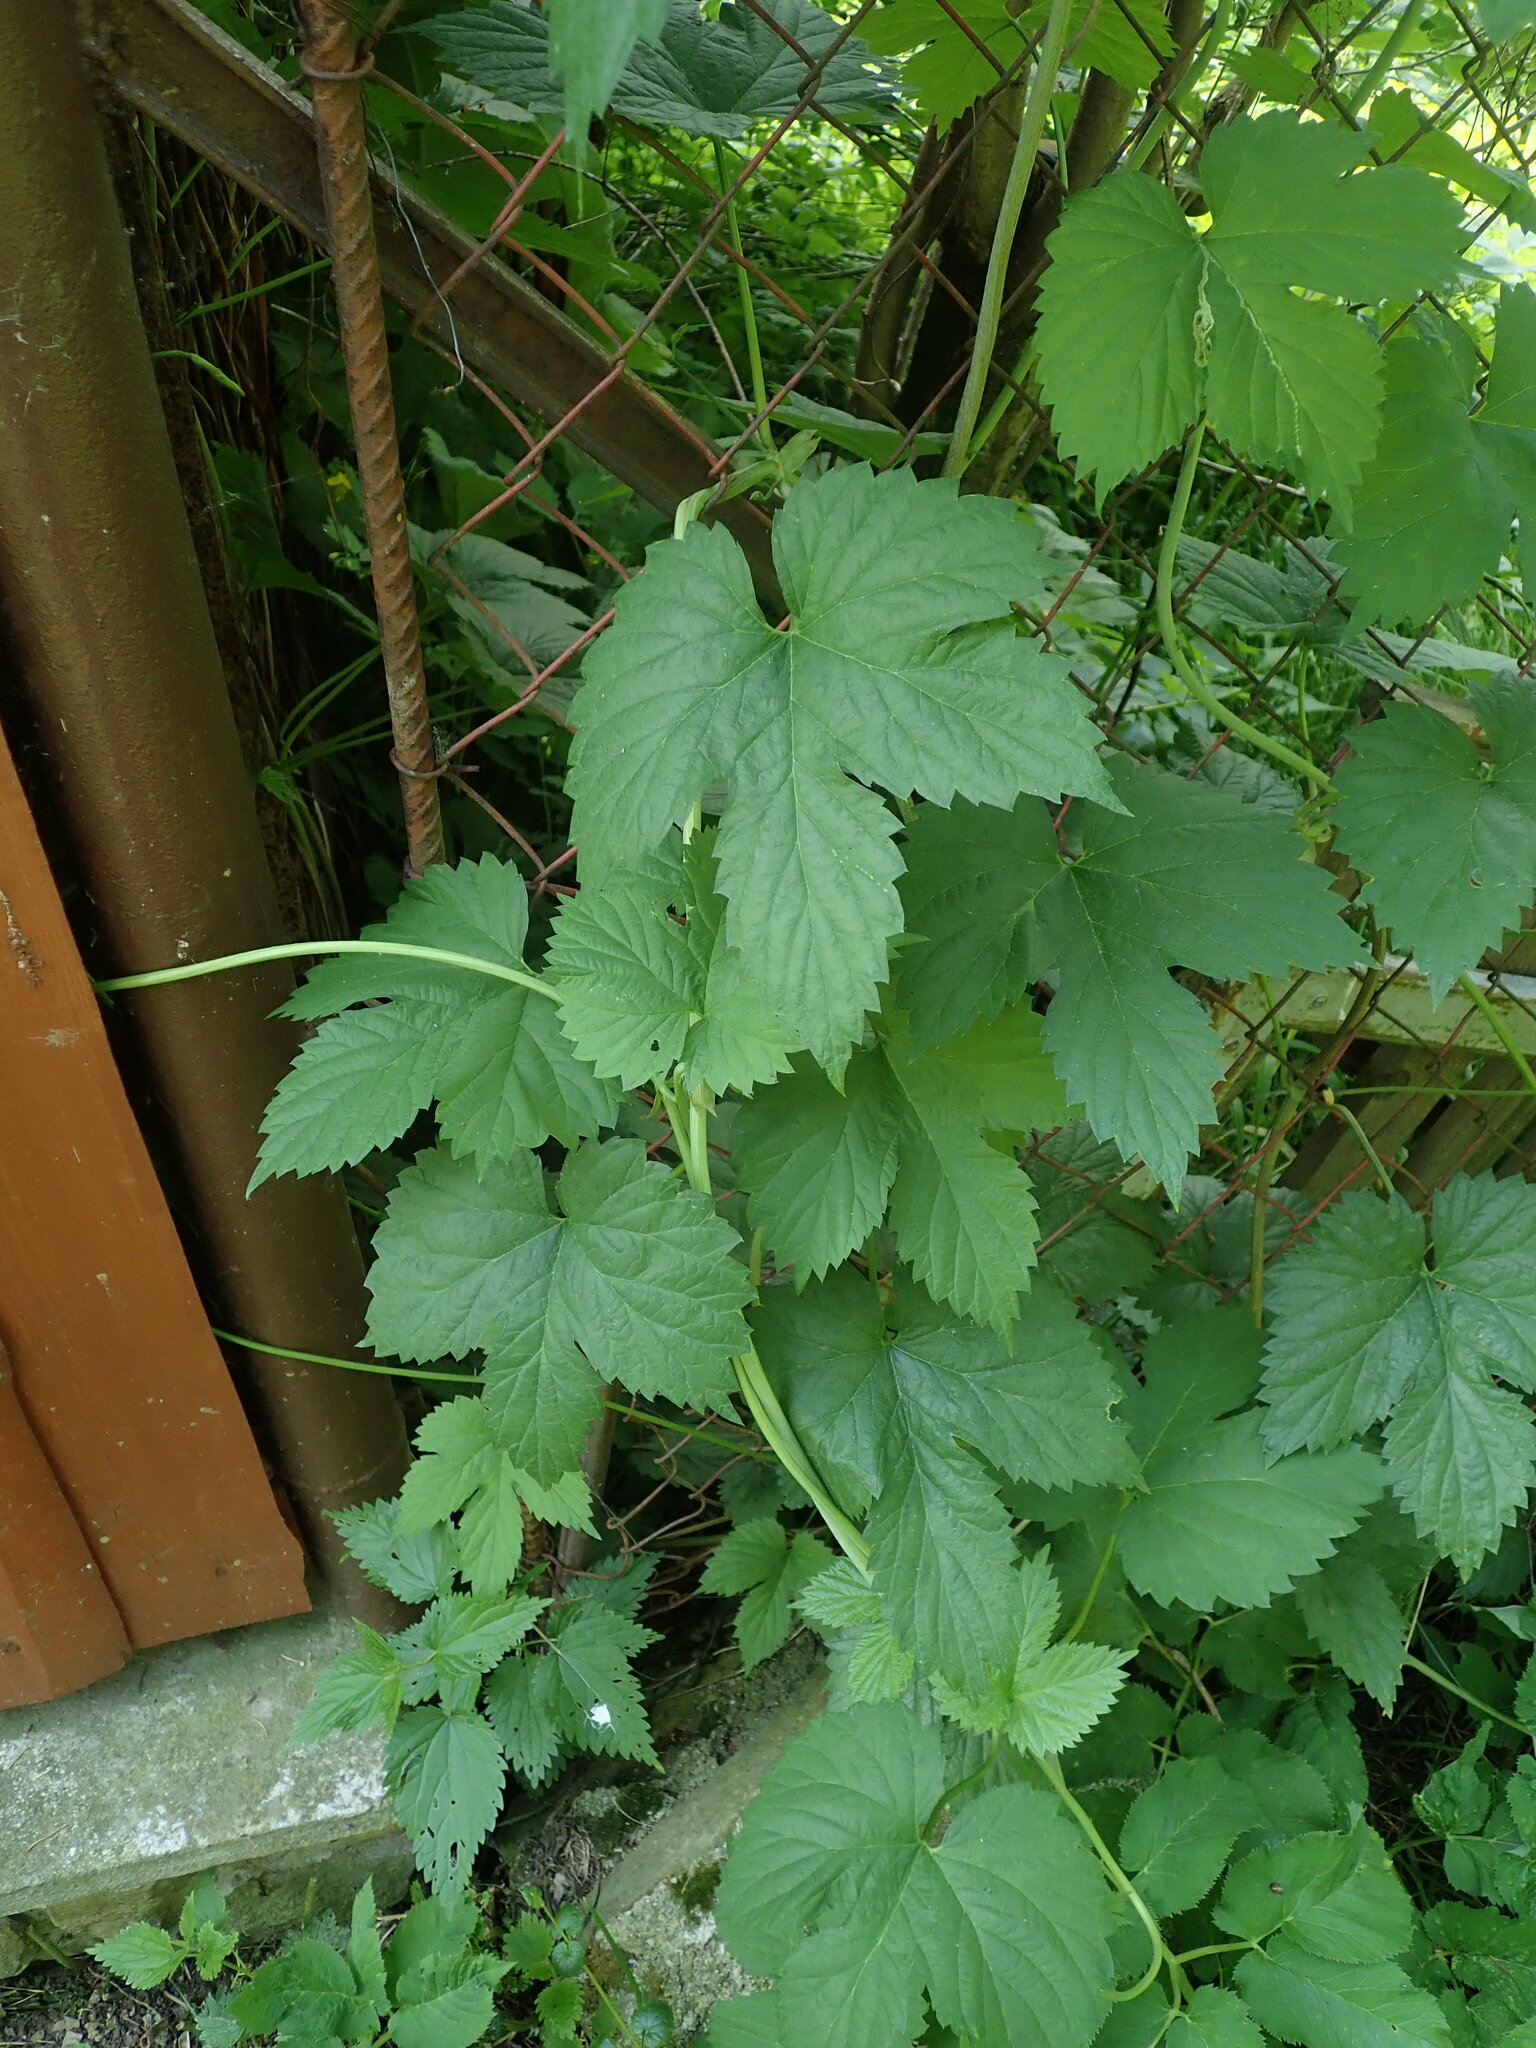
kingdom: Plantae
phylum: Tracheophyta
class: Magnoliopsida
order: Rosales
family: Cannabaceae
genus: Humulus
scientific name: Humulus lupulus
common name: Hop
